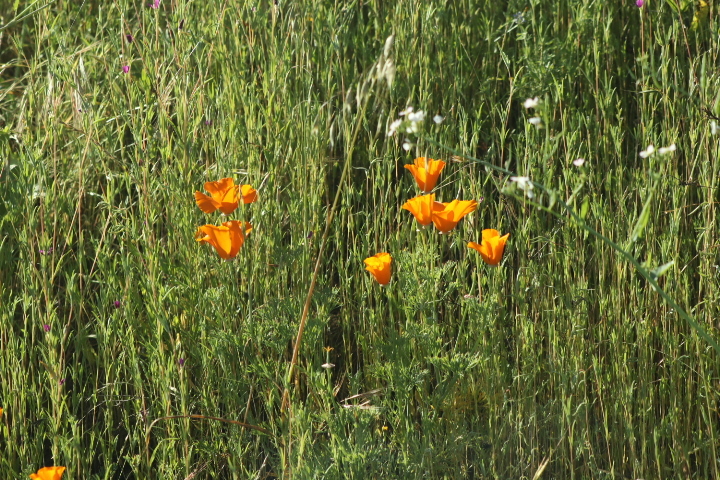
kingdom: Plantae
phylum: Tracheophyta
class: Magnoliopsida
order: Ranunculales
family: Papaveraceae
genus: Eschscholzia
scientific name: Eschscholzia californica
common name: California poppy
